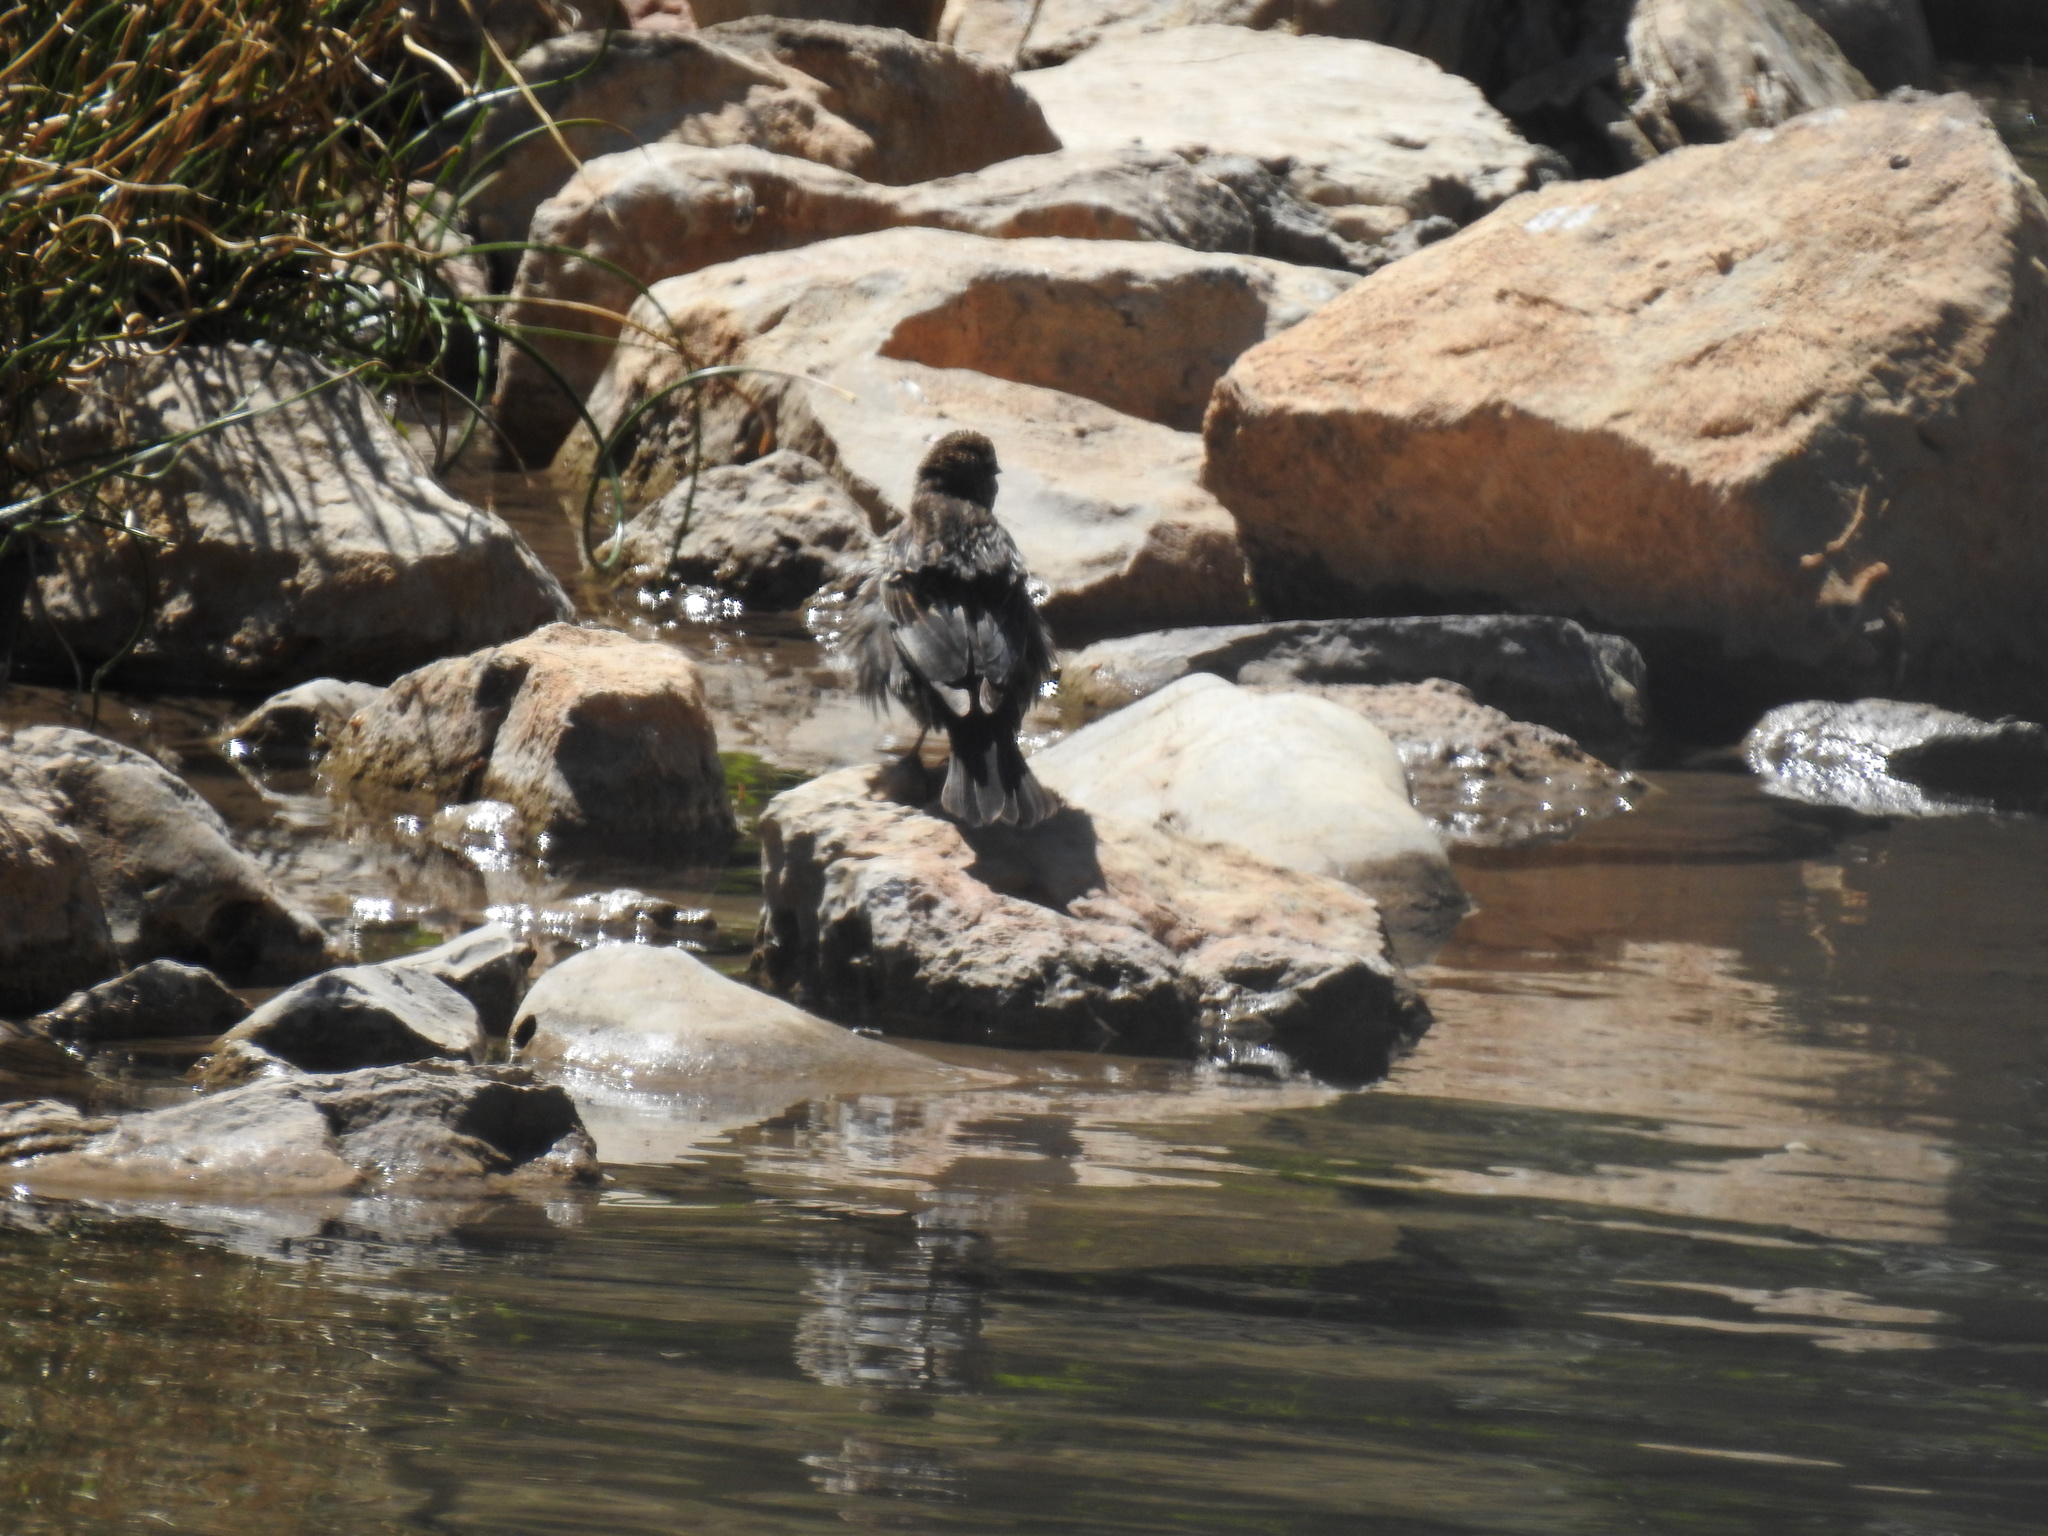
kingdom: Animalia
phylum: Chordata
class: Aves
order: Passeriformes
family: Icteridae
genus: Agelaius
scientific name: Agelaius phoeniceus
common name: Red-winged blackbird
